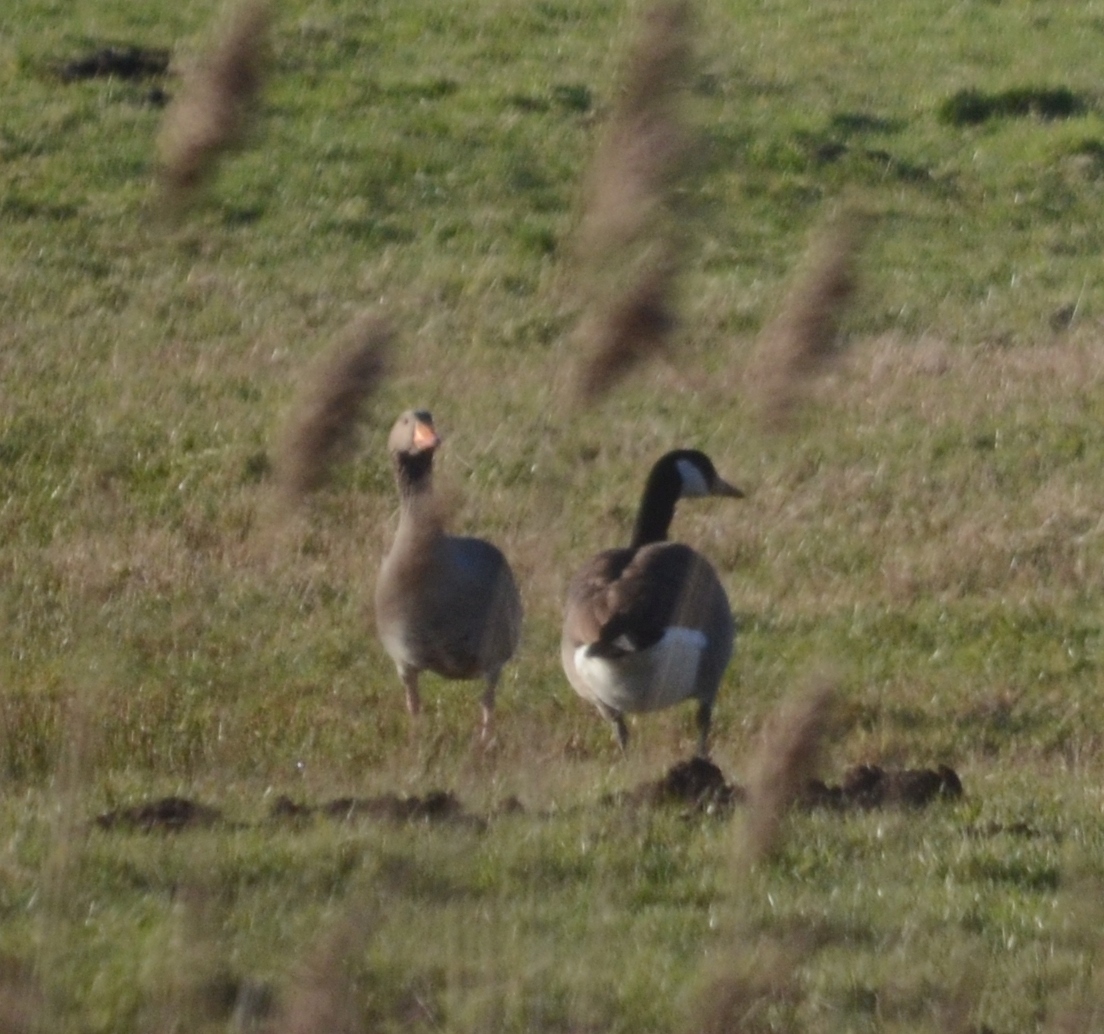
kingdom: Animalia
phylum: Chordata
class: Aves
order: Anseriformes
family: Anatidae
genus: Anser
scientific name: Anser anser
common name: Greylag goose
